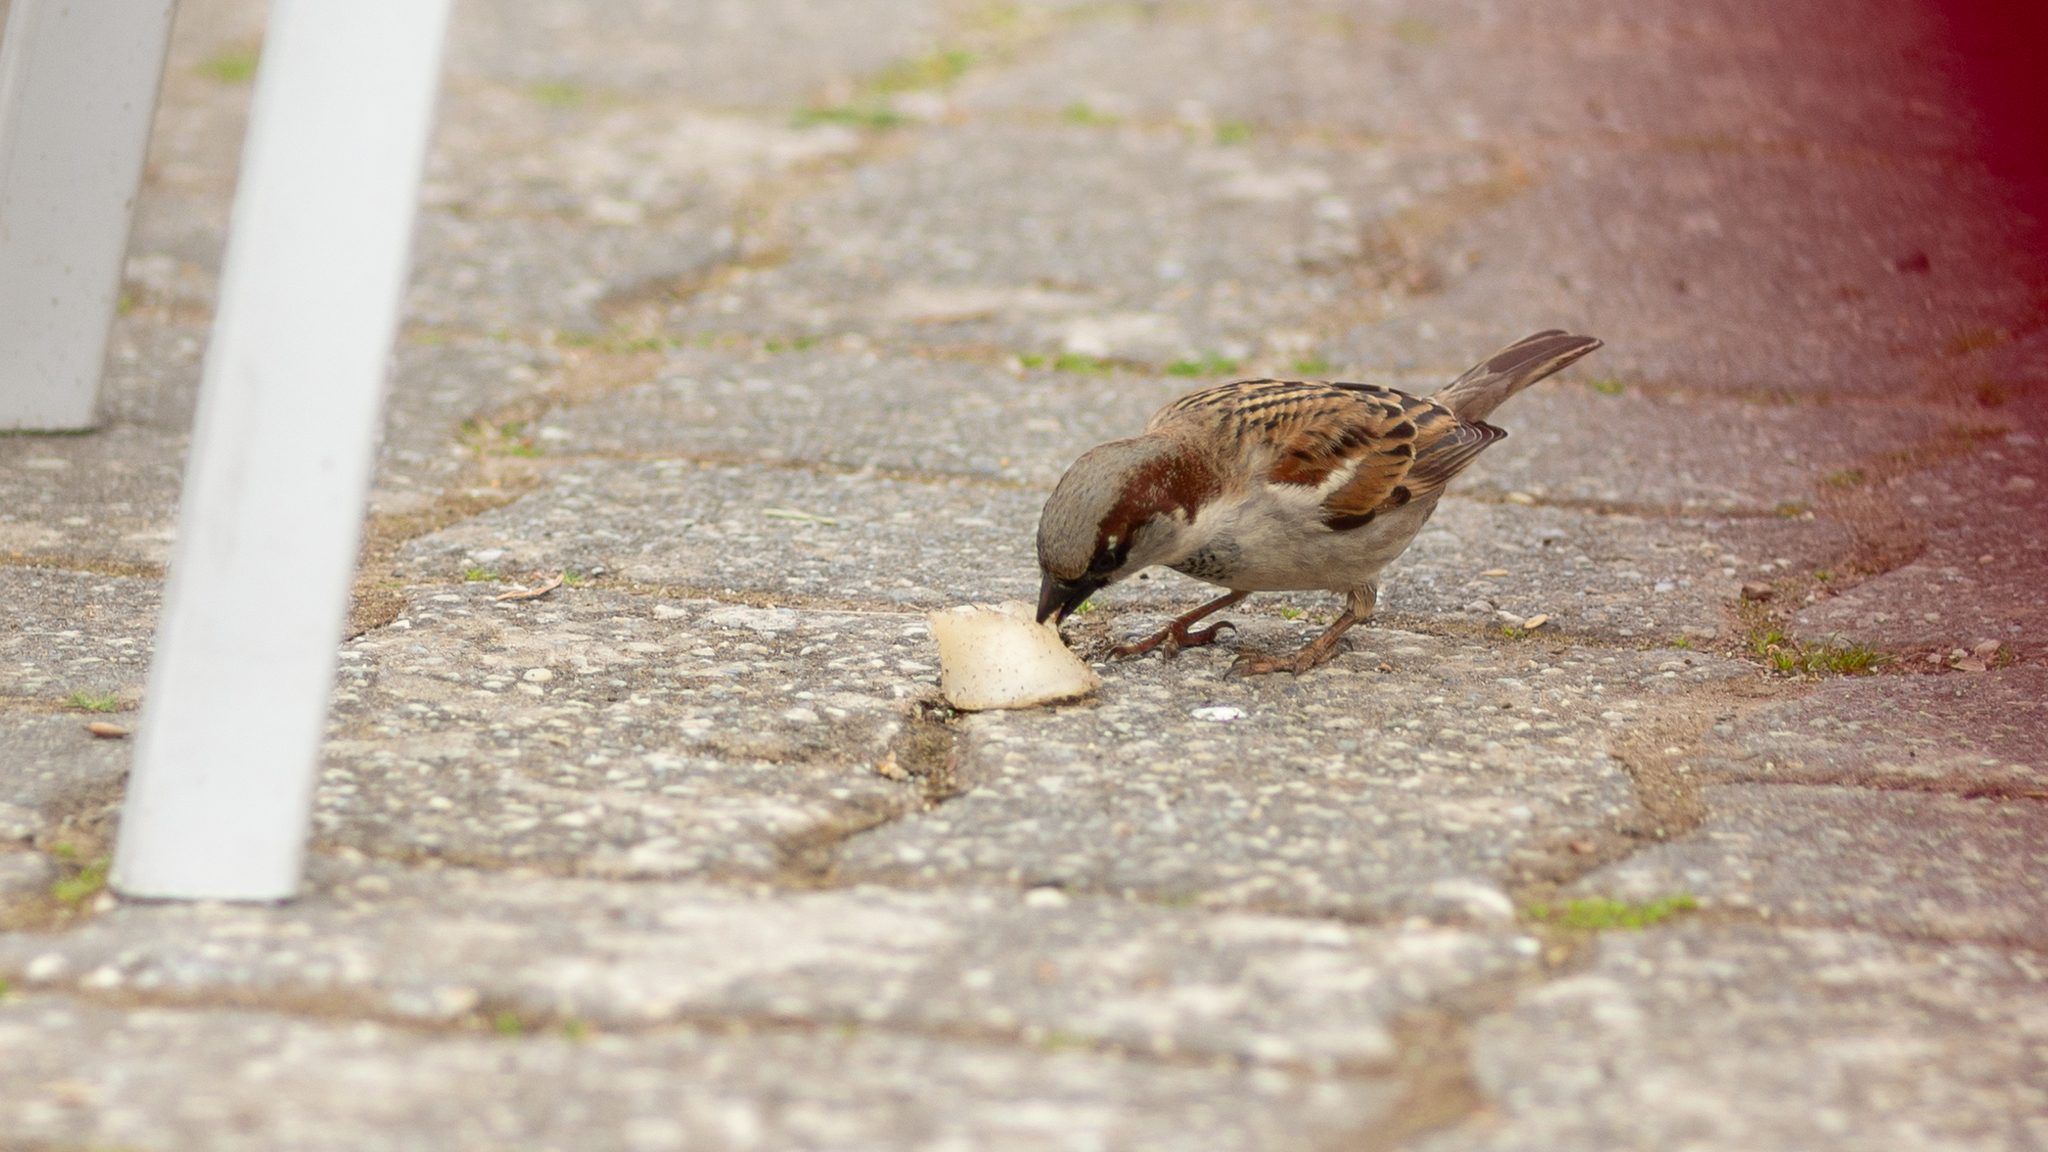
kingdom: Animalia
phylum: Chordata
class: Aves
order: Passeriformes
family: Passeridae
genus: Passer
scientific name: Passer domesticus
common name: House sparrow
